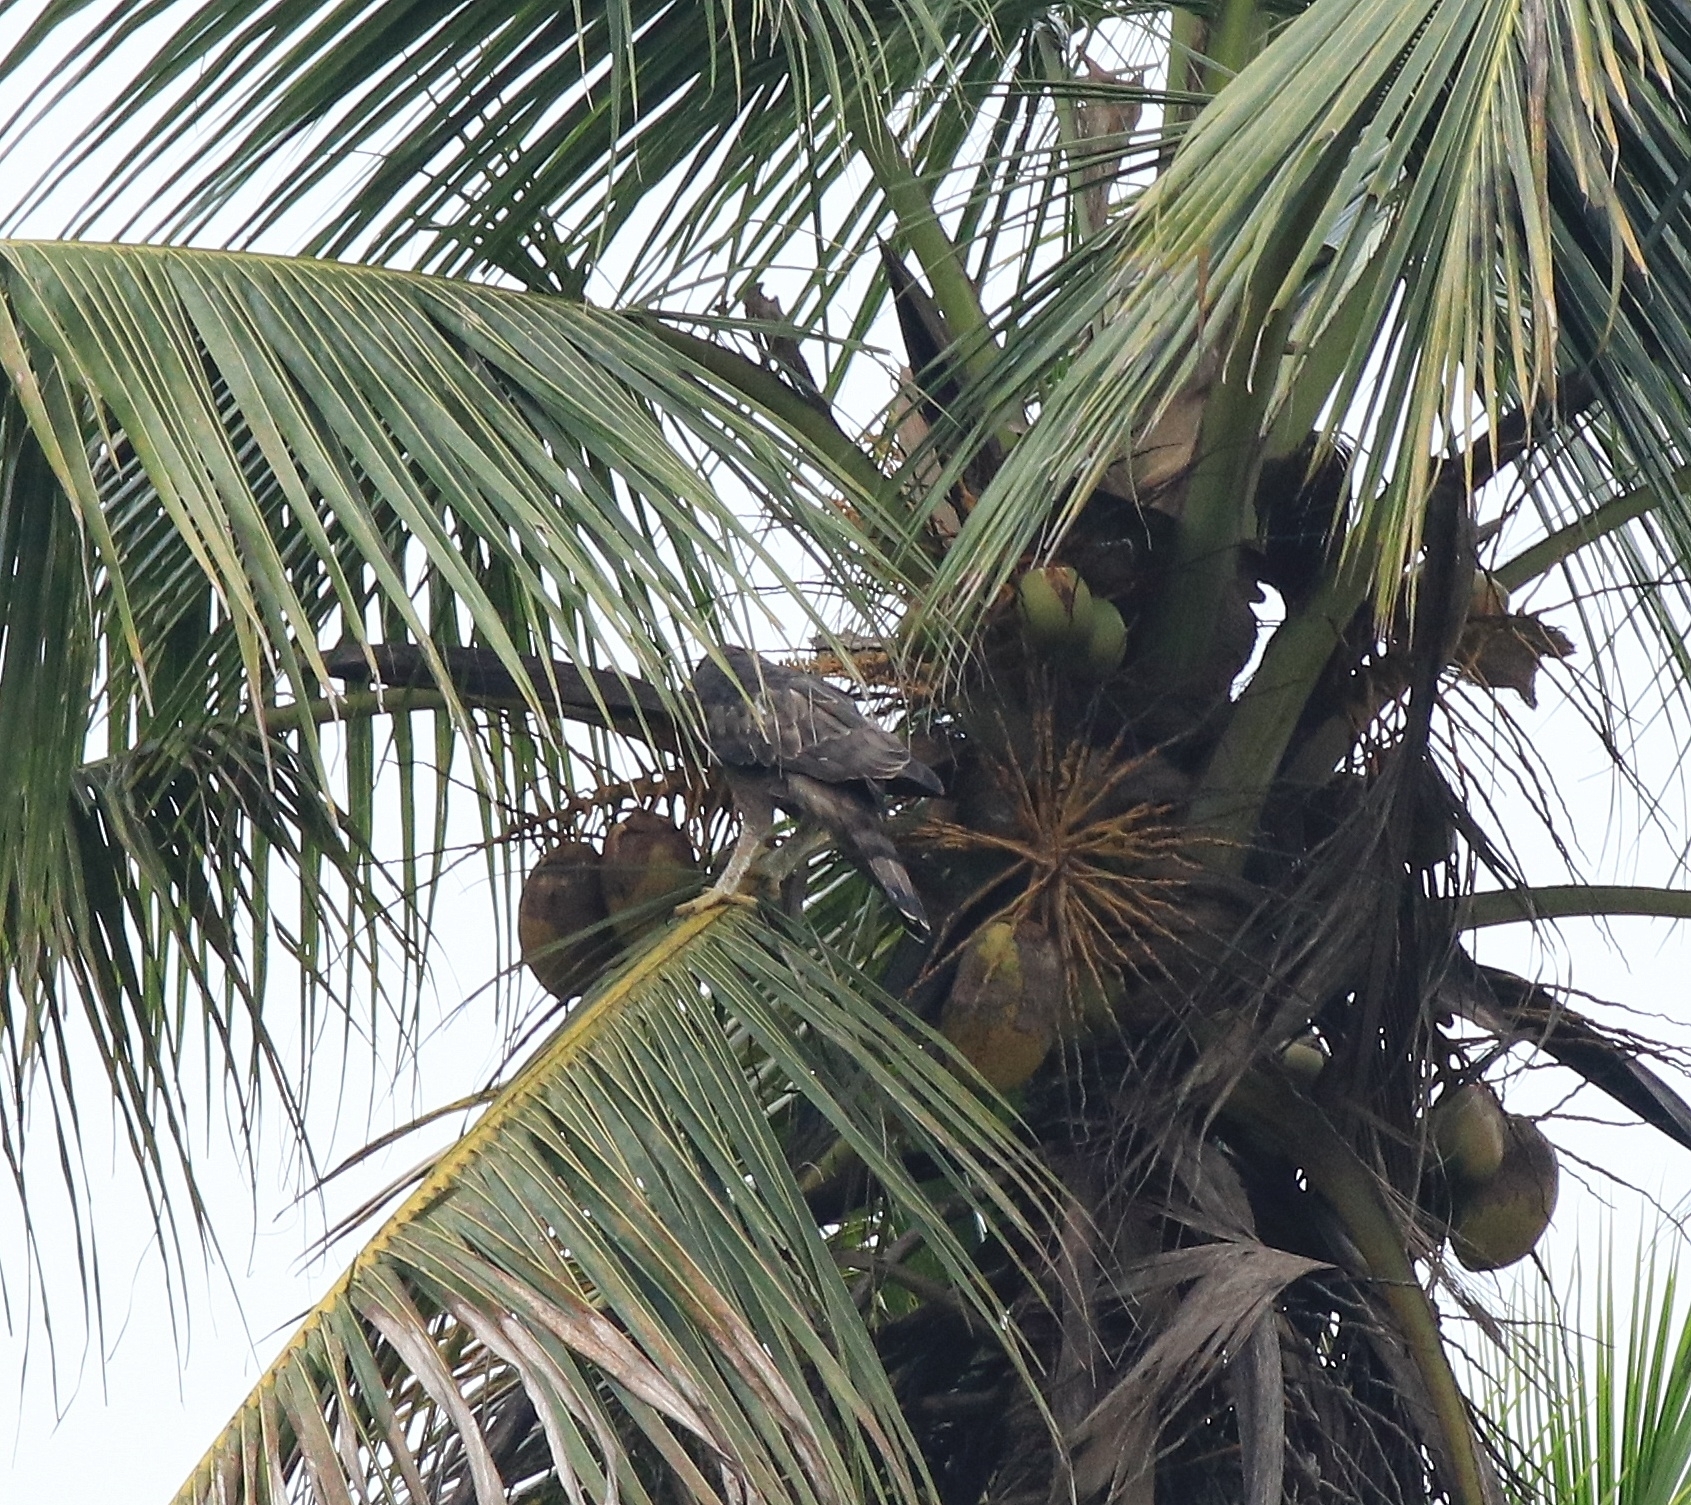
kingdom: Animalia
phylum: Chordata
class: Aves
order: Accipitriformes
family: Accipitridae
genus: Nisaetus
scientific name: Nisaetus cirrhatus
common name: Changeable hawk-eagle
